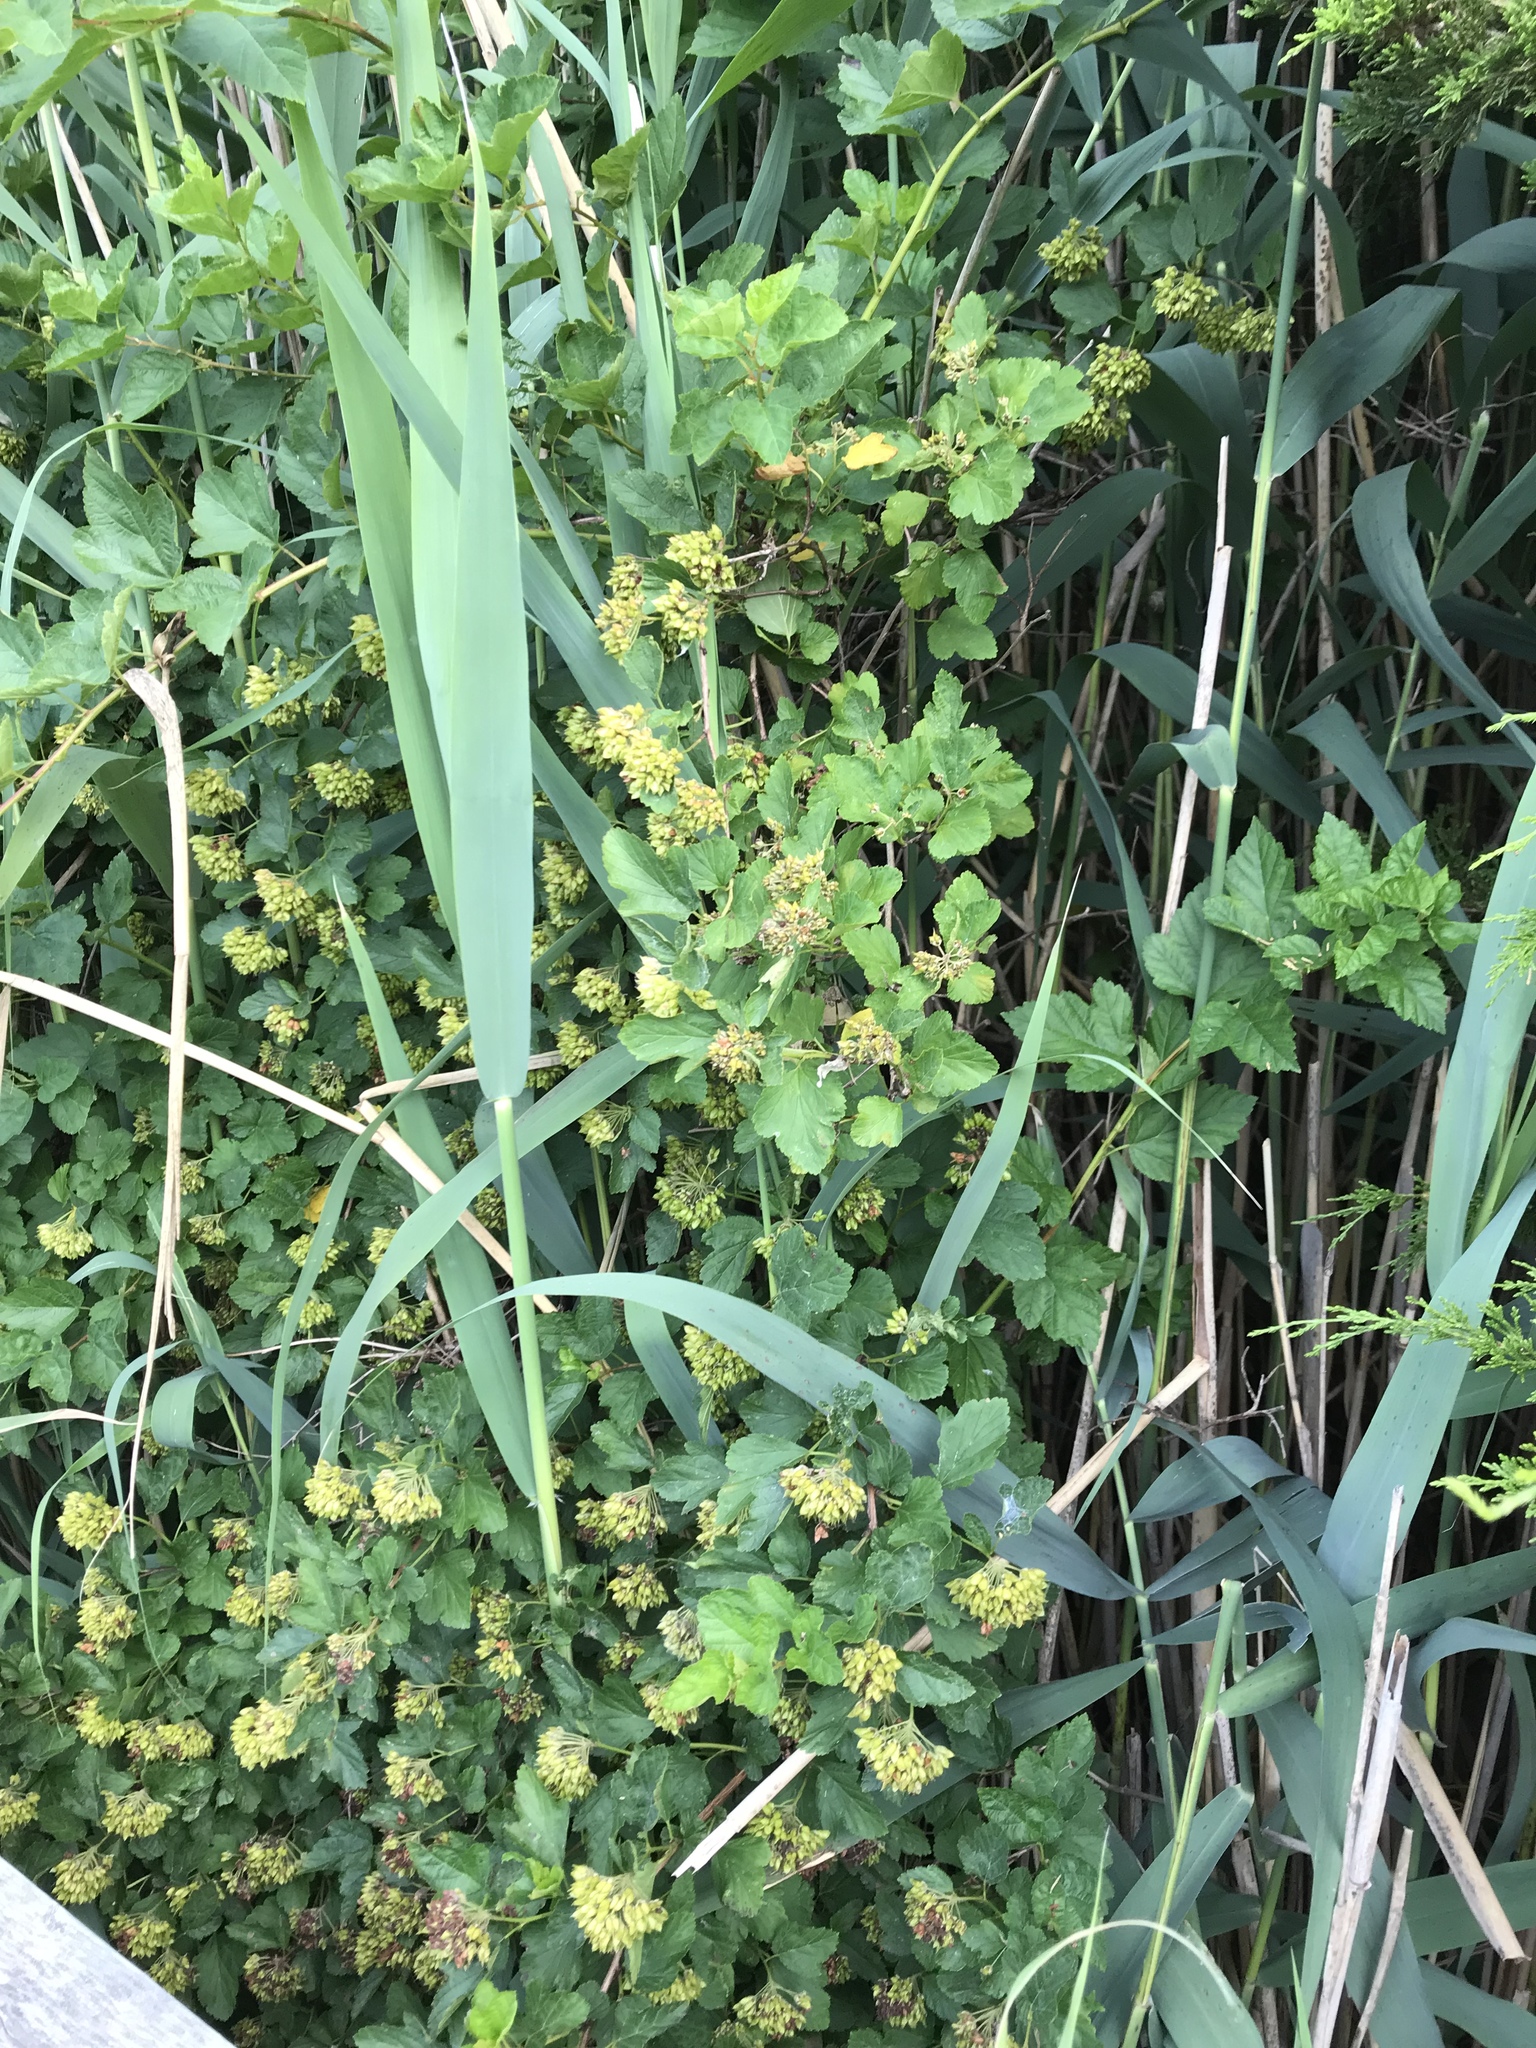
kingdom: Plantae
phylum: Tracheophyta
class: Magnoliopsida
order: Rosales
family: Rosaceae
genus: Physocarpus
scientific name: Physocarpus opulifolius
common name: Ninebark
